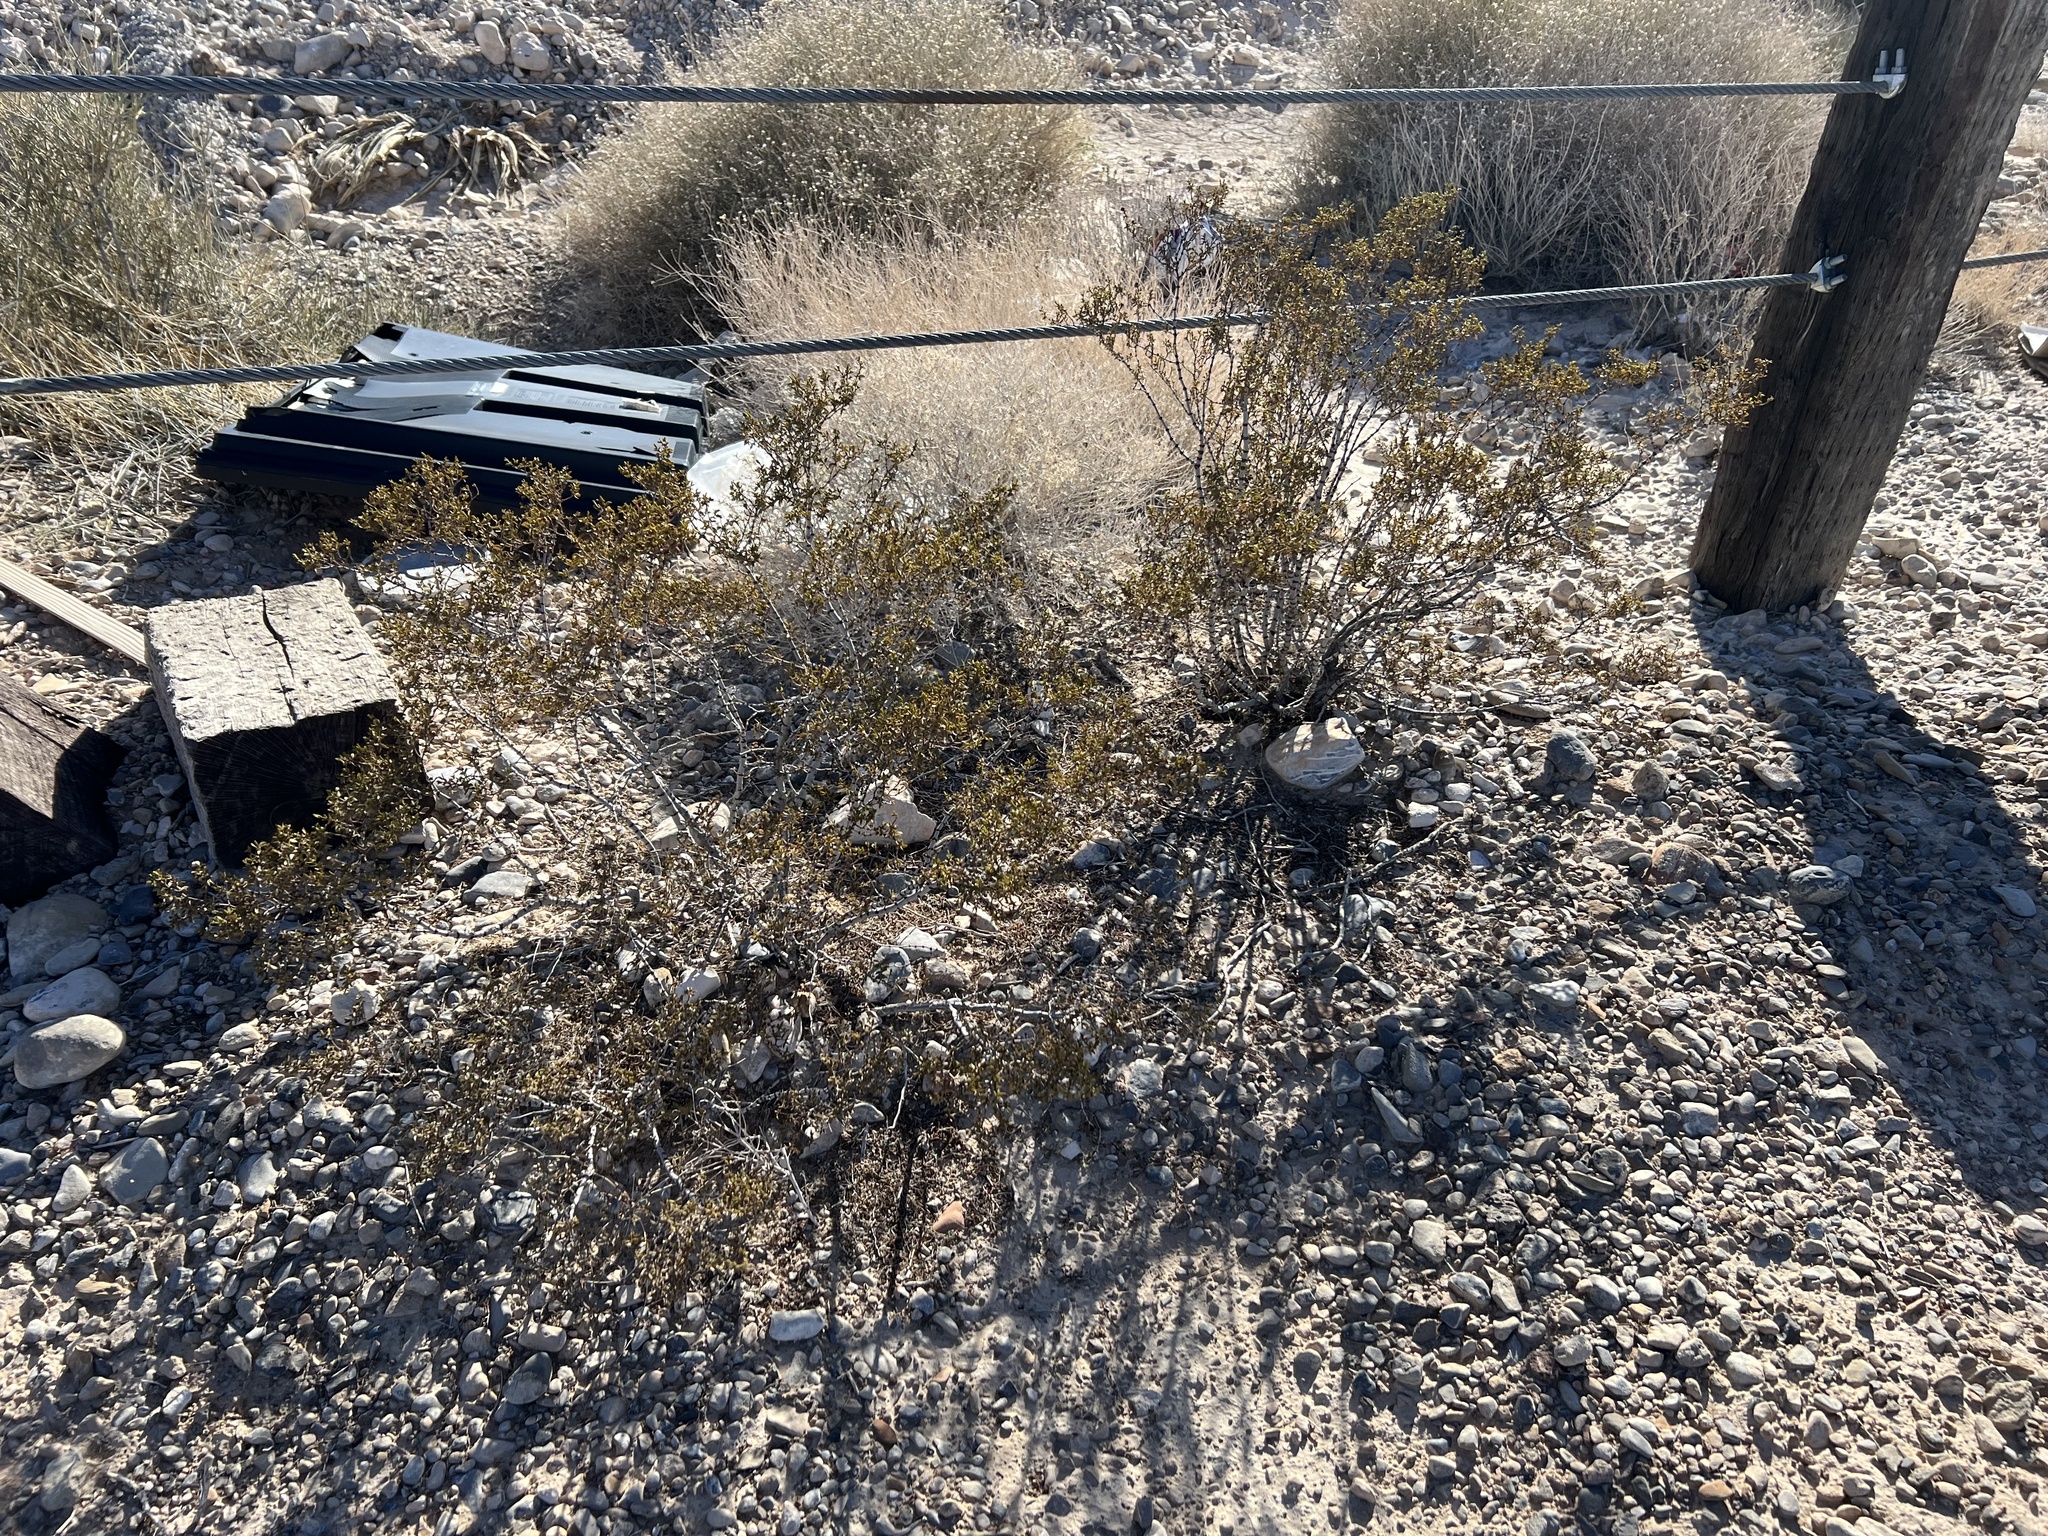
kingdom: Plantae
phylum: Tracheophyta
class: Magnoliopsida
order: Zygophyllales
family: Zygophyllaceae
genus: Larrea
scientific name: Larrea tridentata
